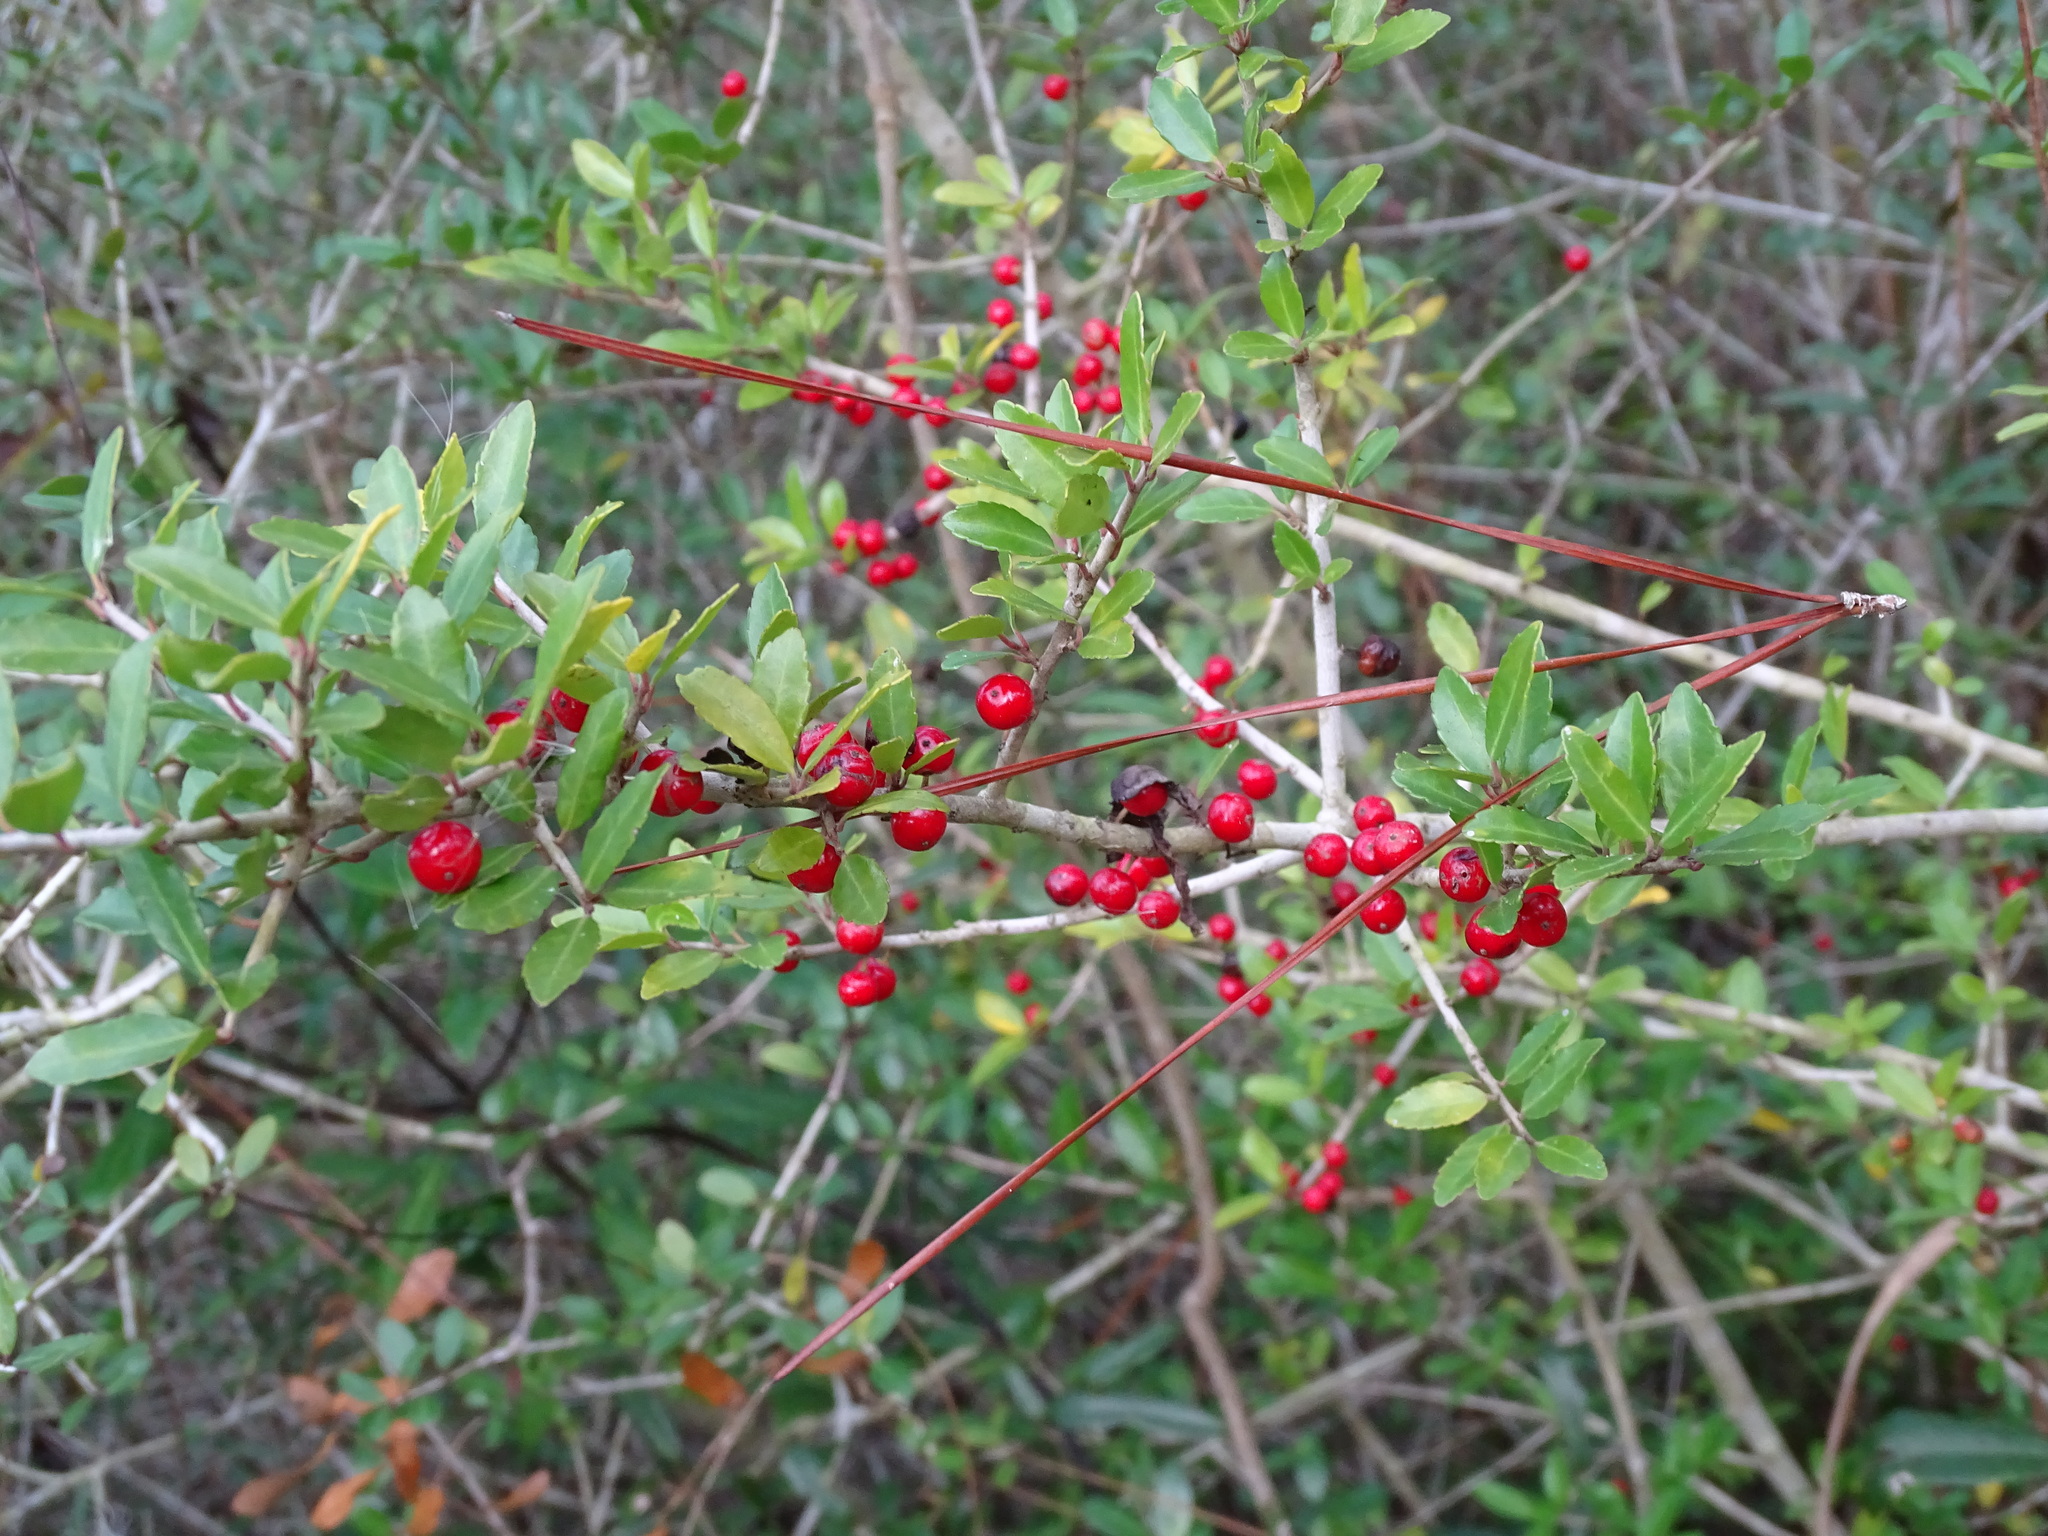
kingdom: Plantae
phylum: Tracheophyta
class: Magnoliopsida
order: Aquifoliales
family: Aquifoliaceae
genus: Ilex
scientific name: Ilex vomitoria
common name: Yaupon holly
